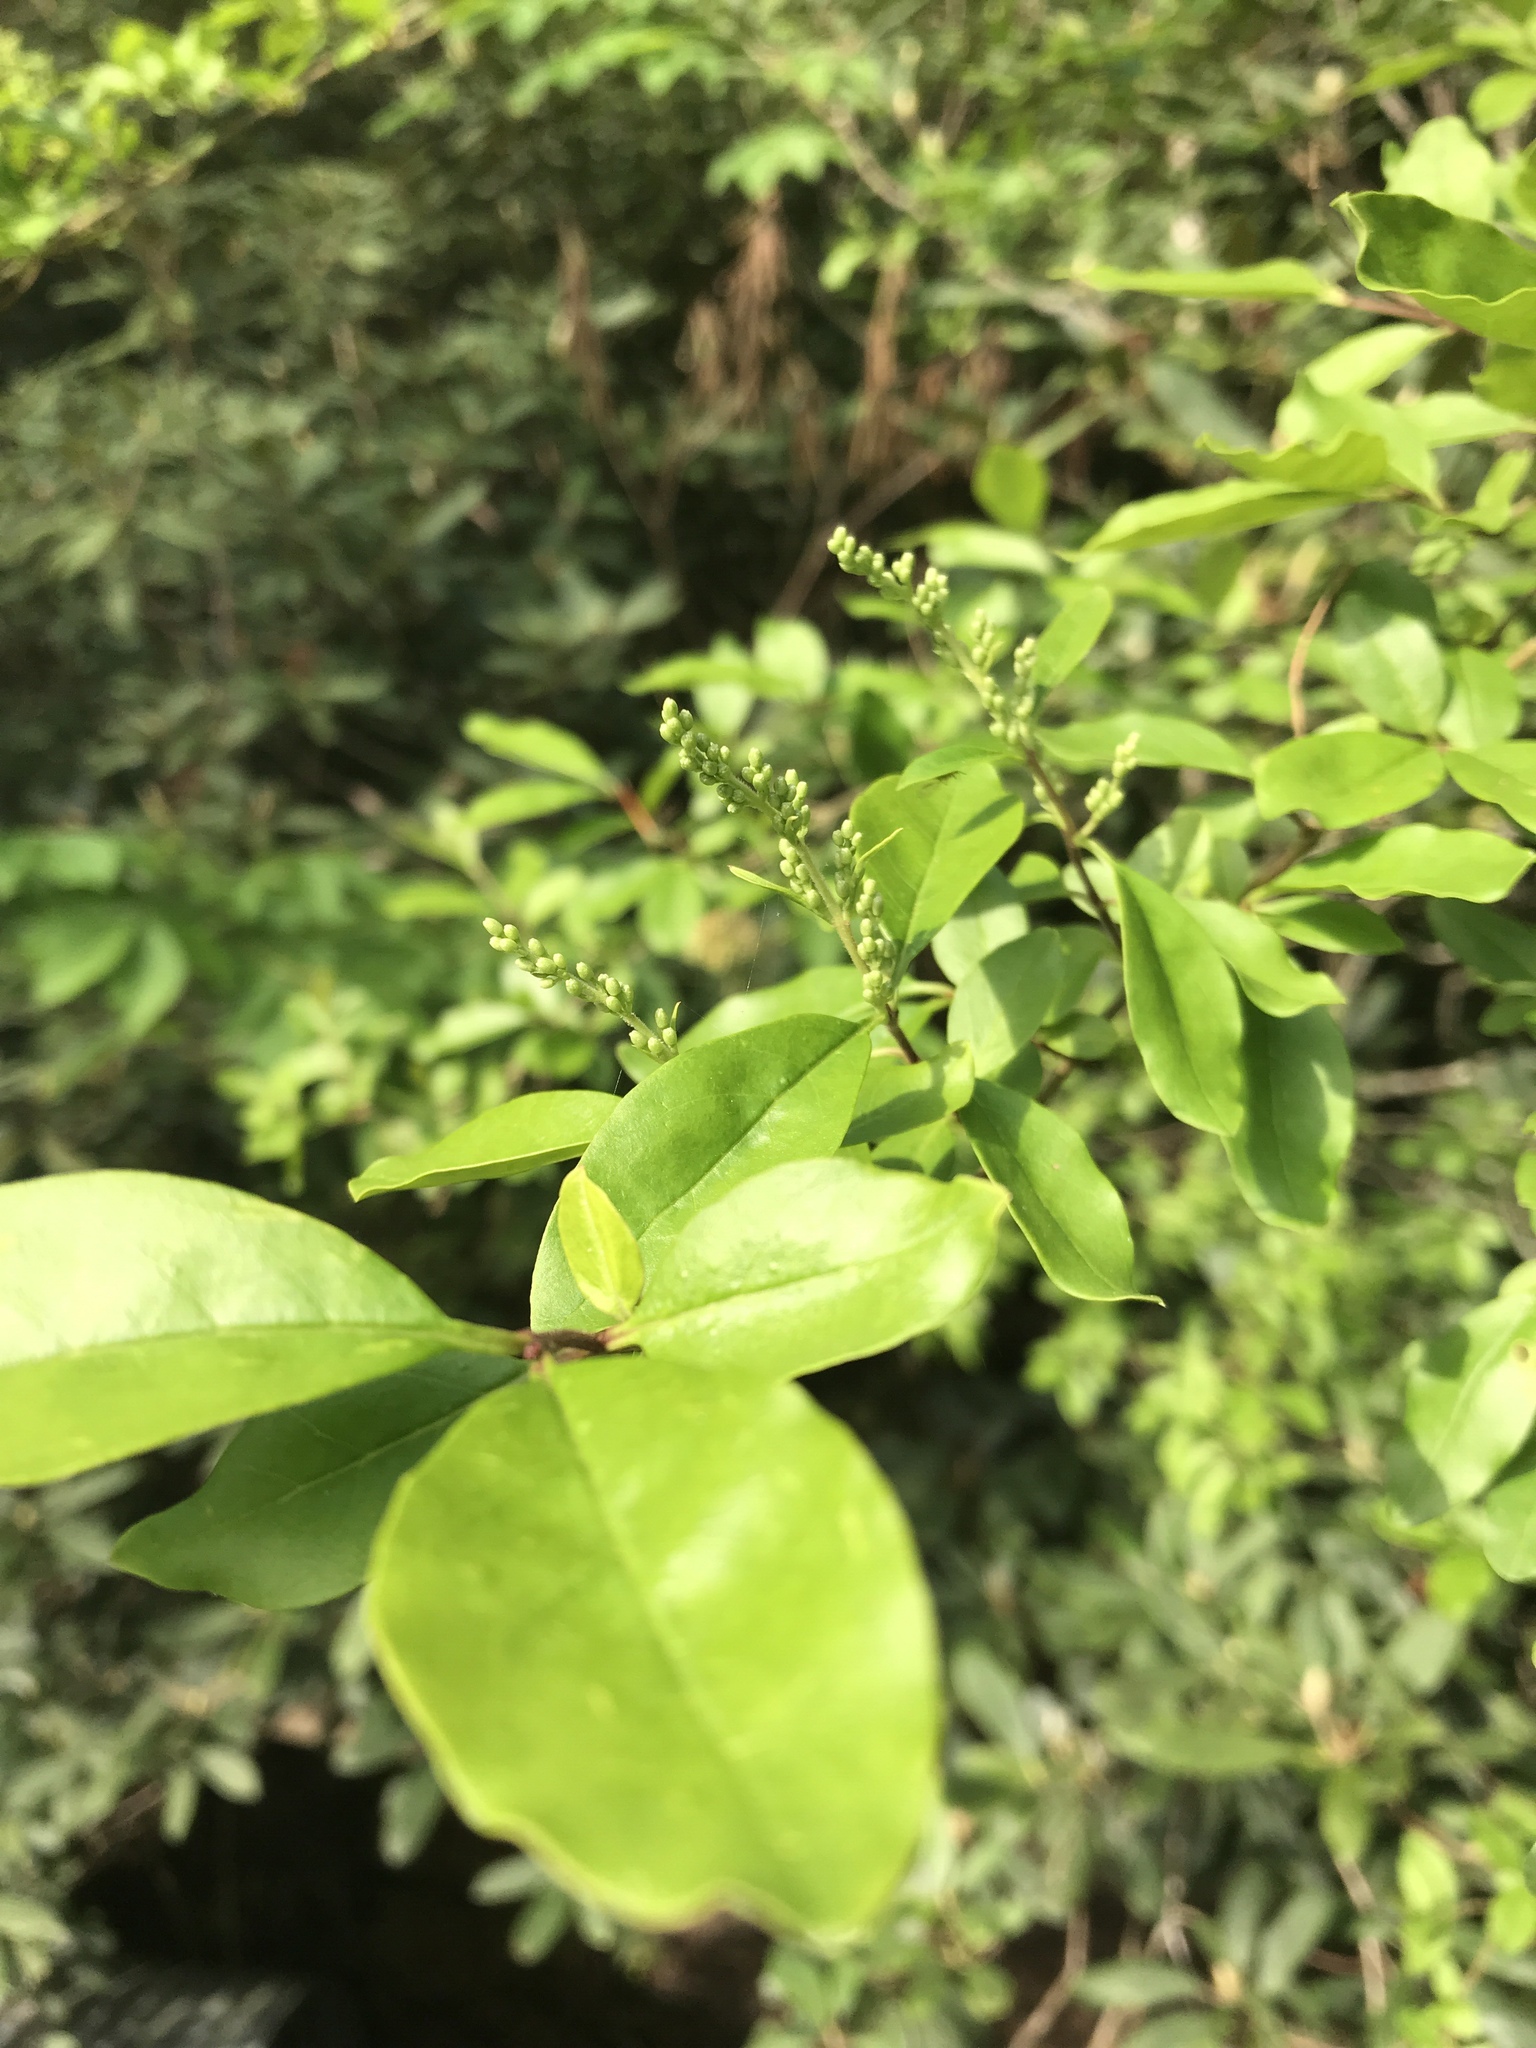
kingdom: Plantae
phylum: Tracheophyta
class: Magnoliopsida
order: Lamiales
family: Oleaceae
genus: Ligustrum
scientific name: Ligustrum sinense
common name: Chinese privet
